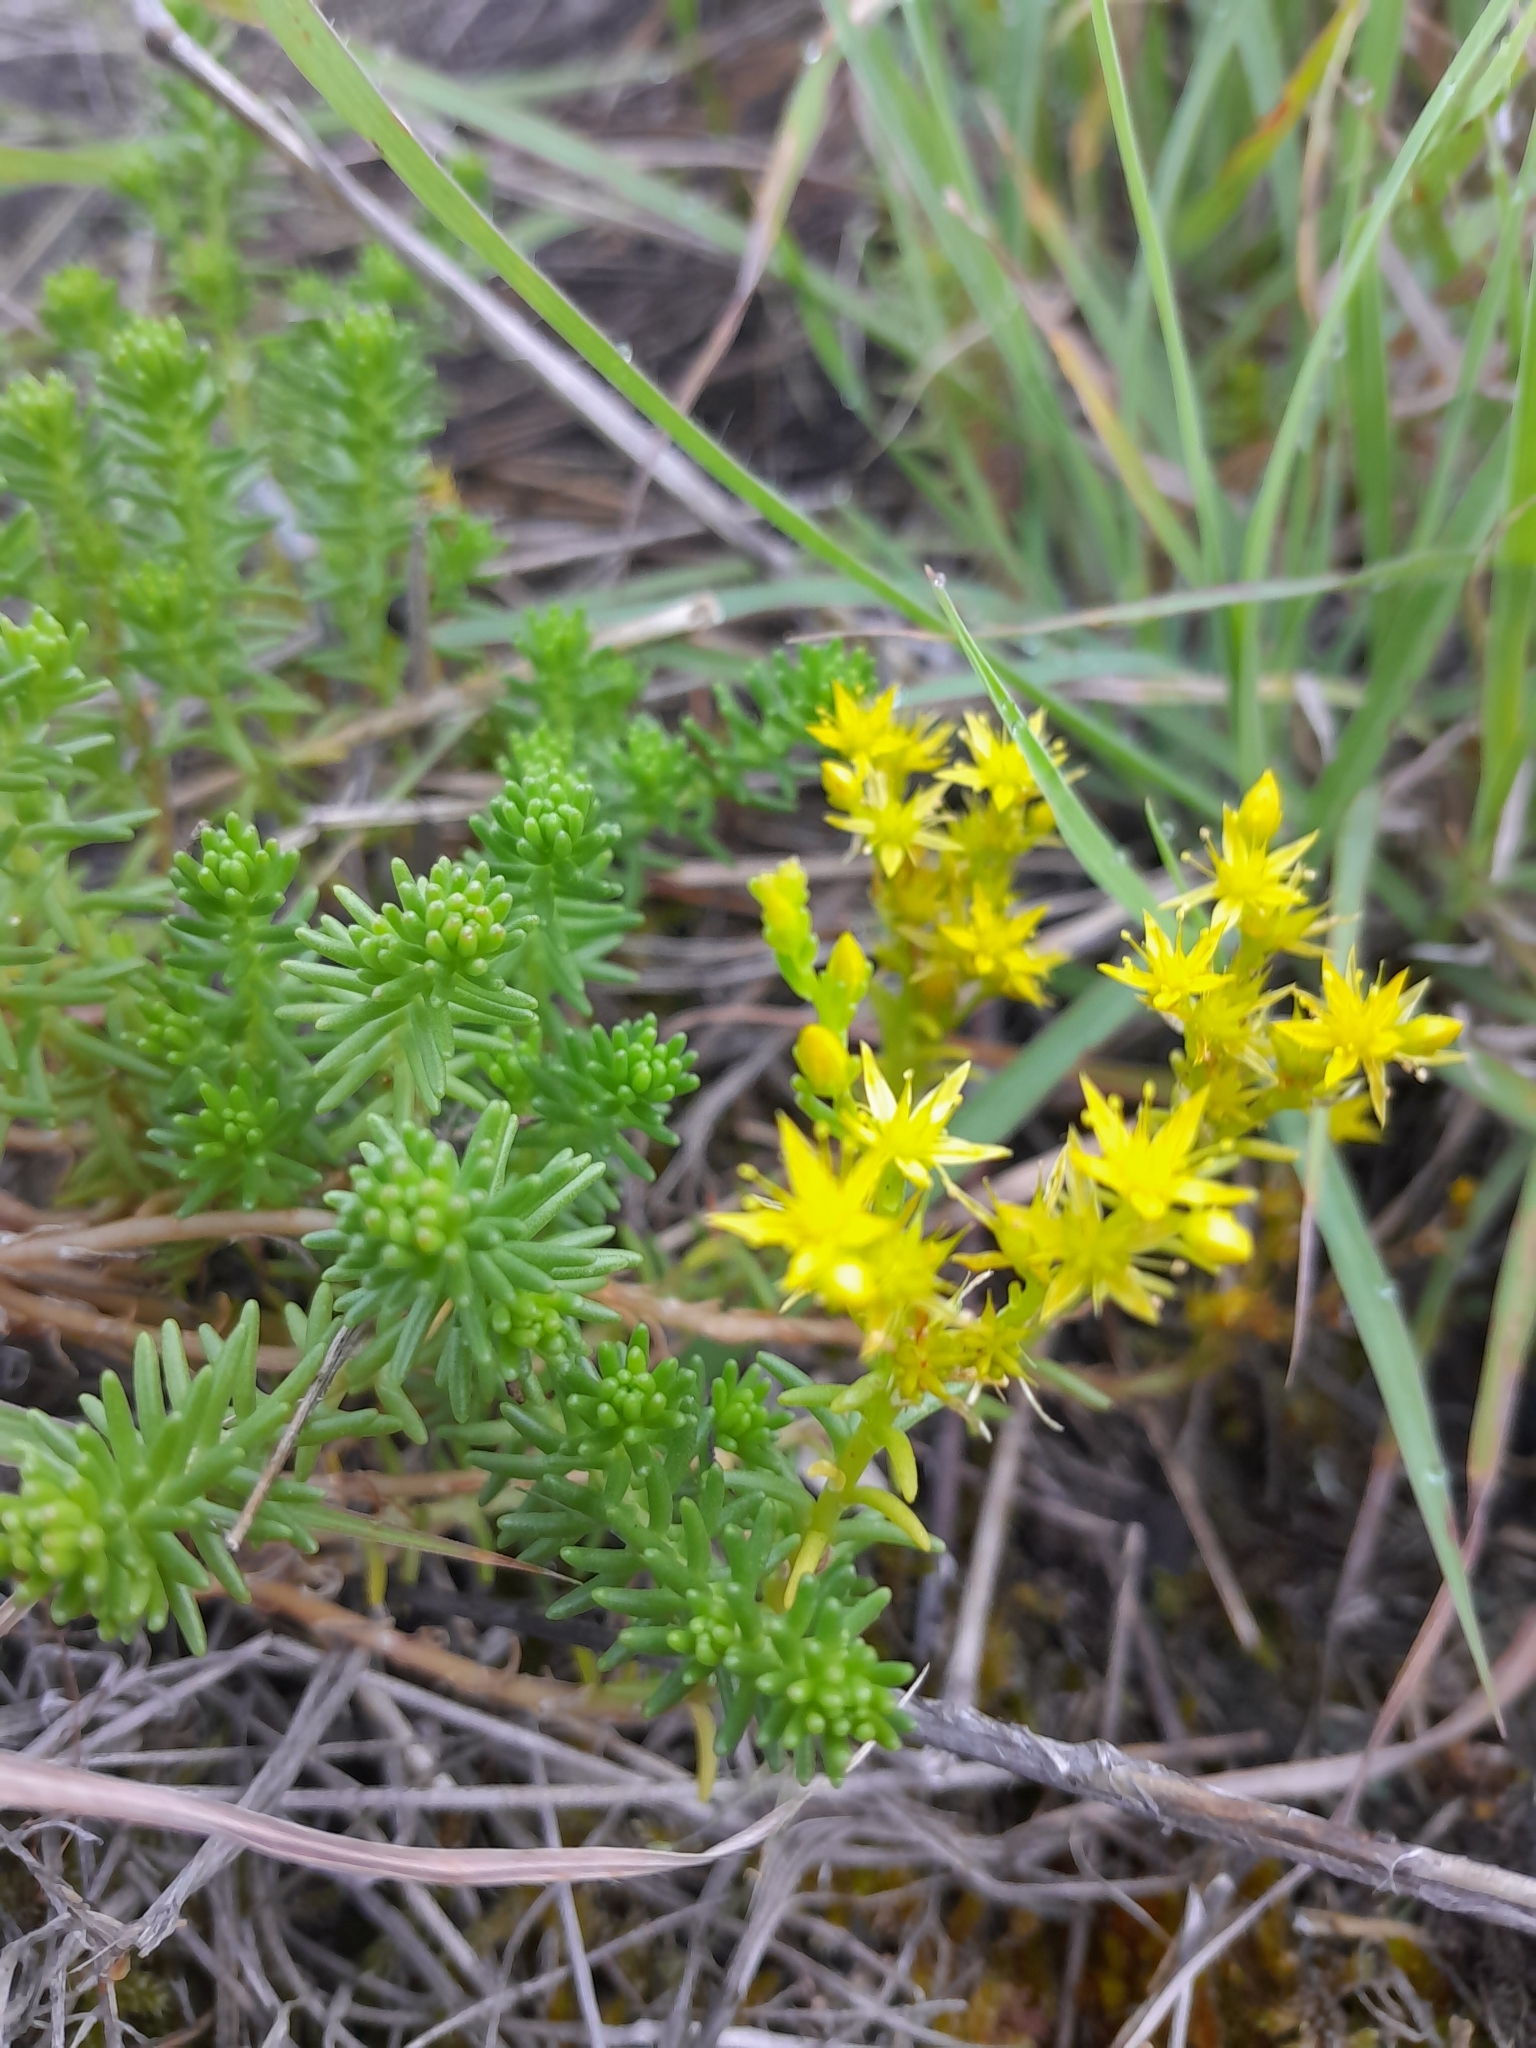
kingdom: Plantae
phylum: Tracheophyta
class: Magnoliopsida
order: Saxifragales
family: Crassulaceae
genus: Sedum
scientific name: Sedum sexangulare
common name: Tasteless stonecrop
